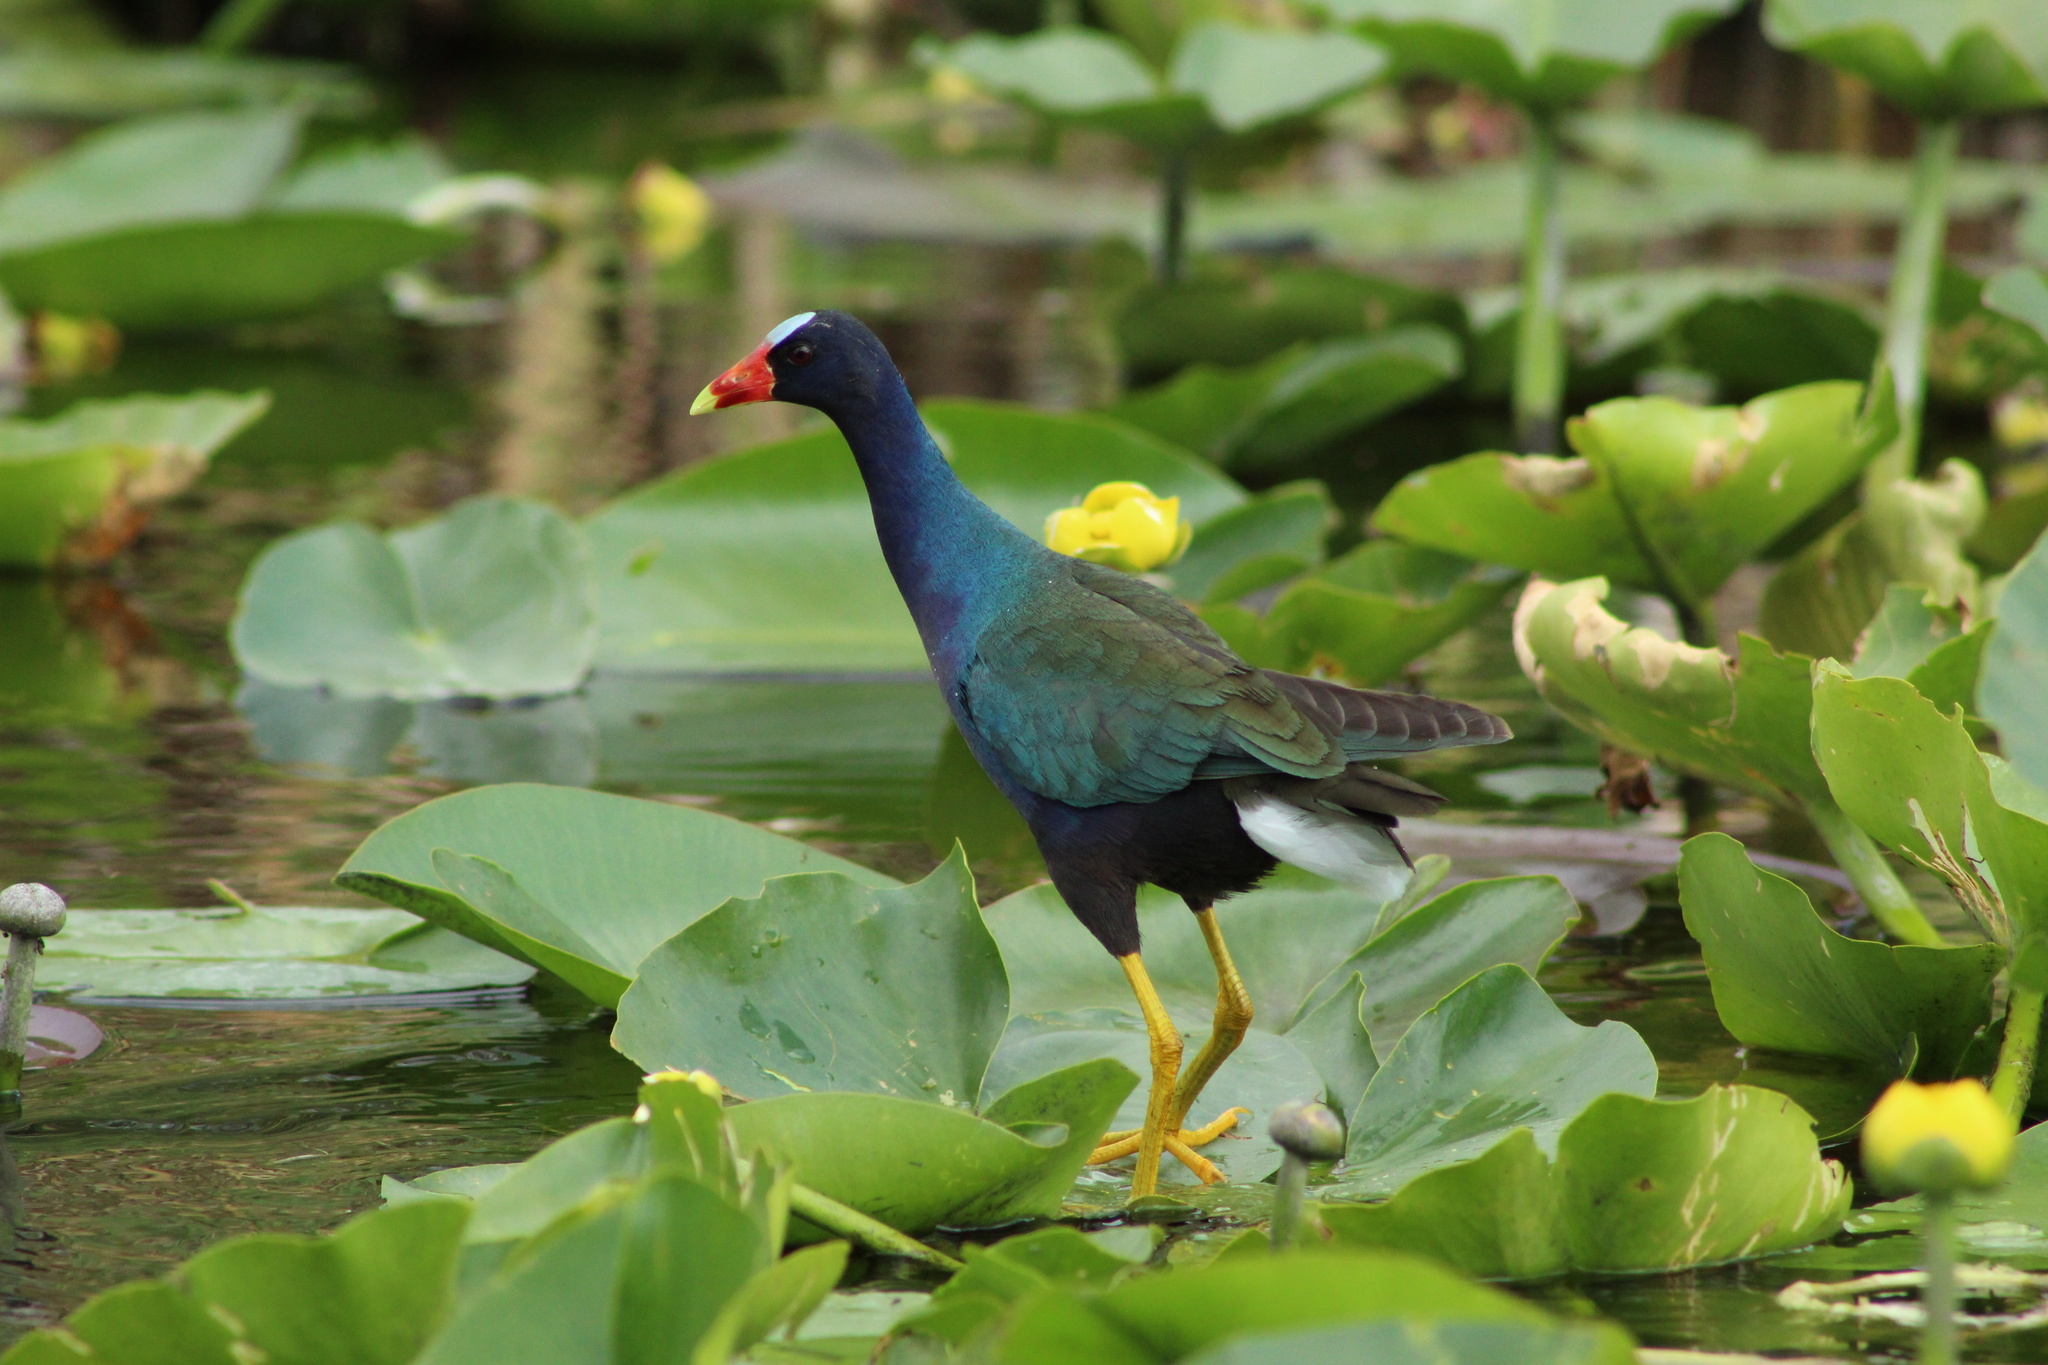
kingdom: Animalia
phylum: Chordata
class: Aves
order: Gruiformes
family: Rallidae
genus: Porphyrio
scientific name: Porphyrio martinica
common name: Purple gallinule
